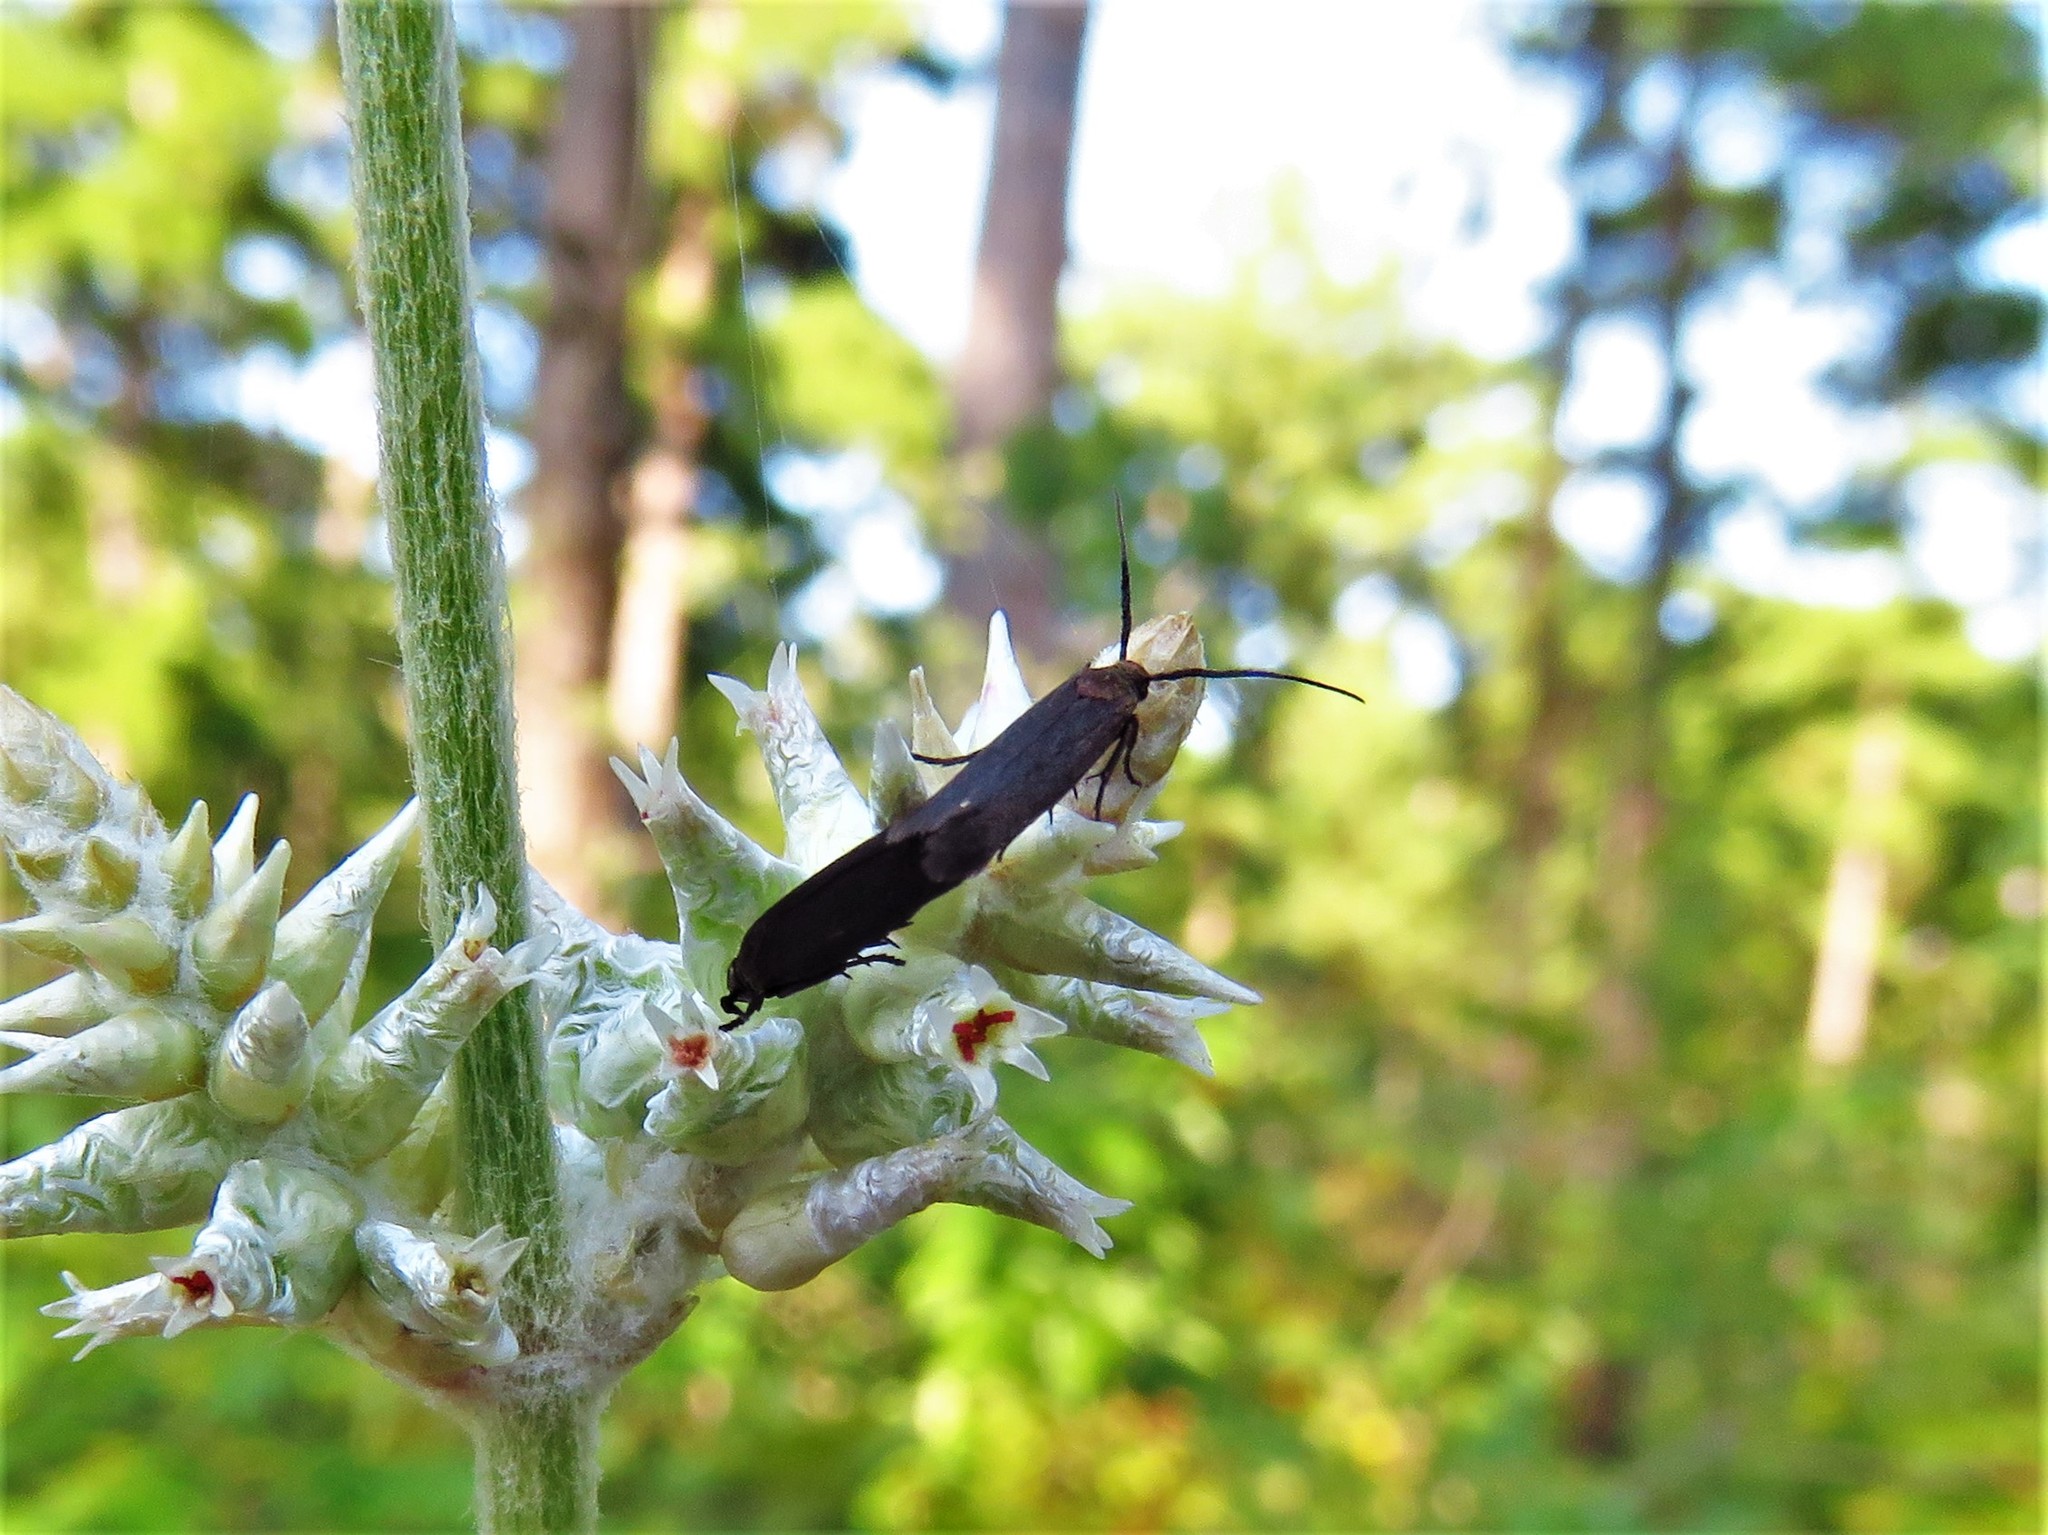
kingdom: Animalia
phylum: Arthropoda
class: Insecta
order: Lepidoptera
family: Scythrididae
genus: Scythris
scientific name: Scythris fuscicomella
